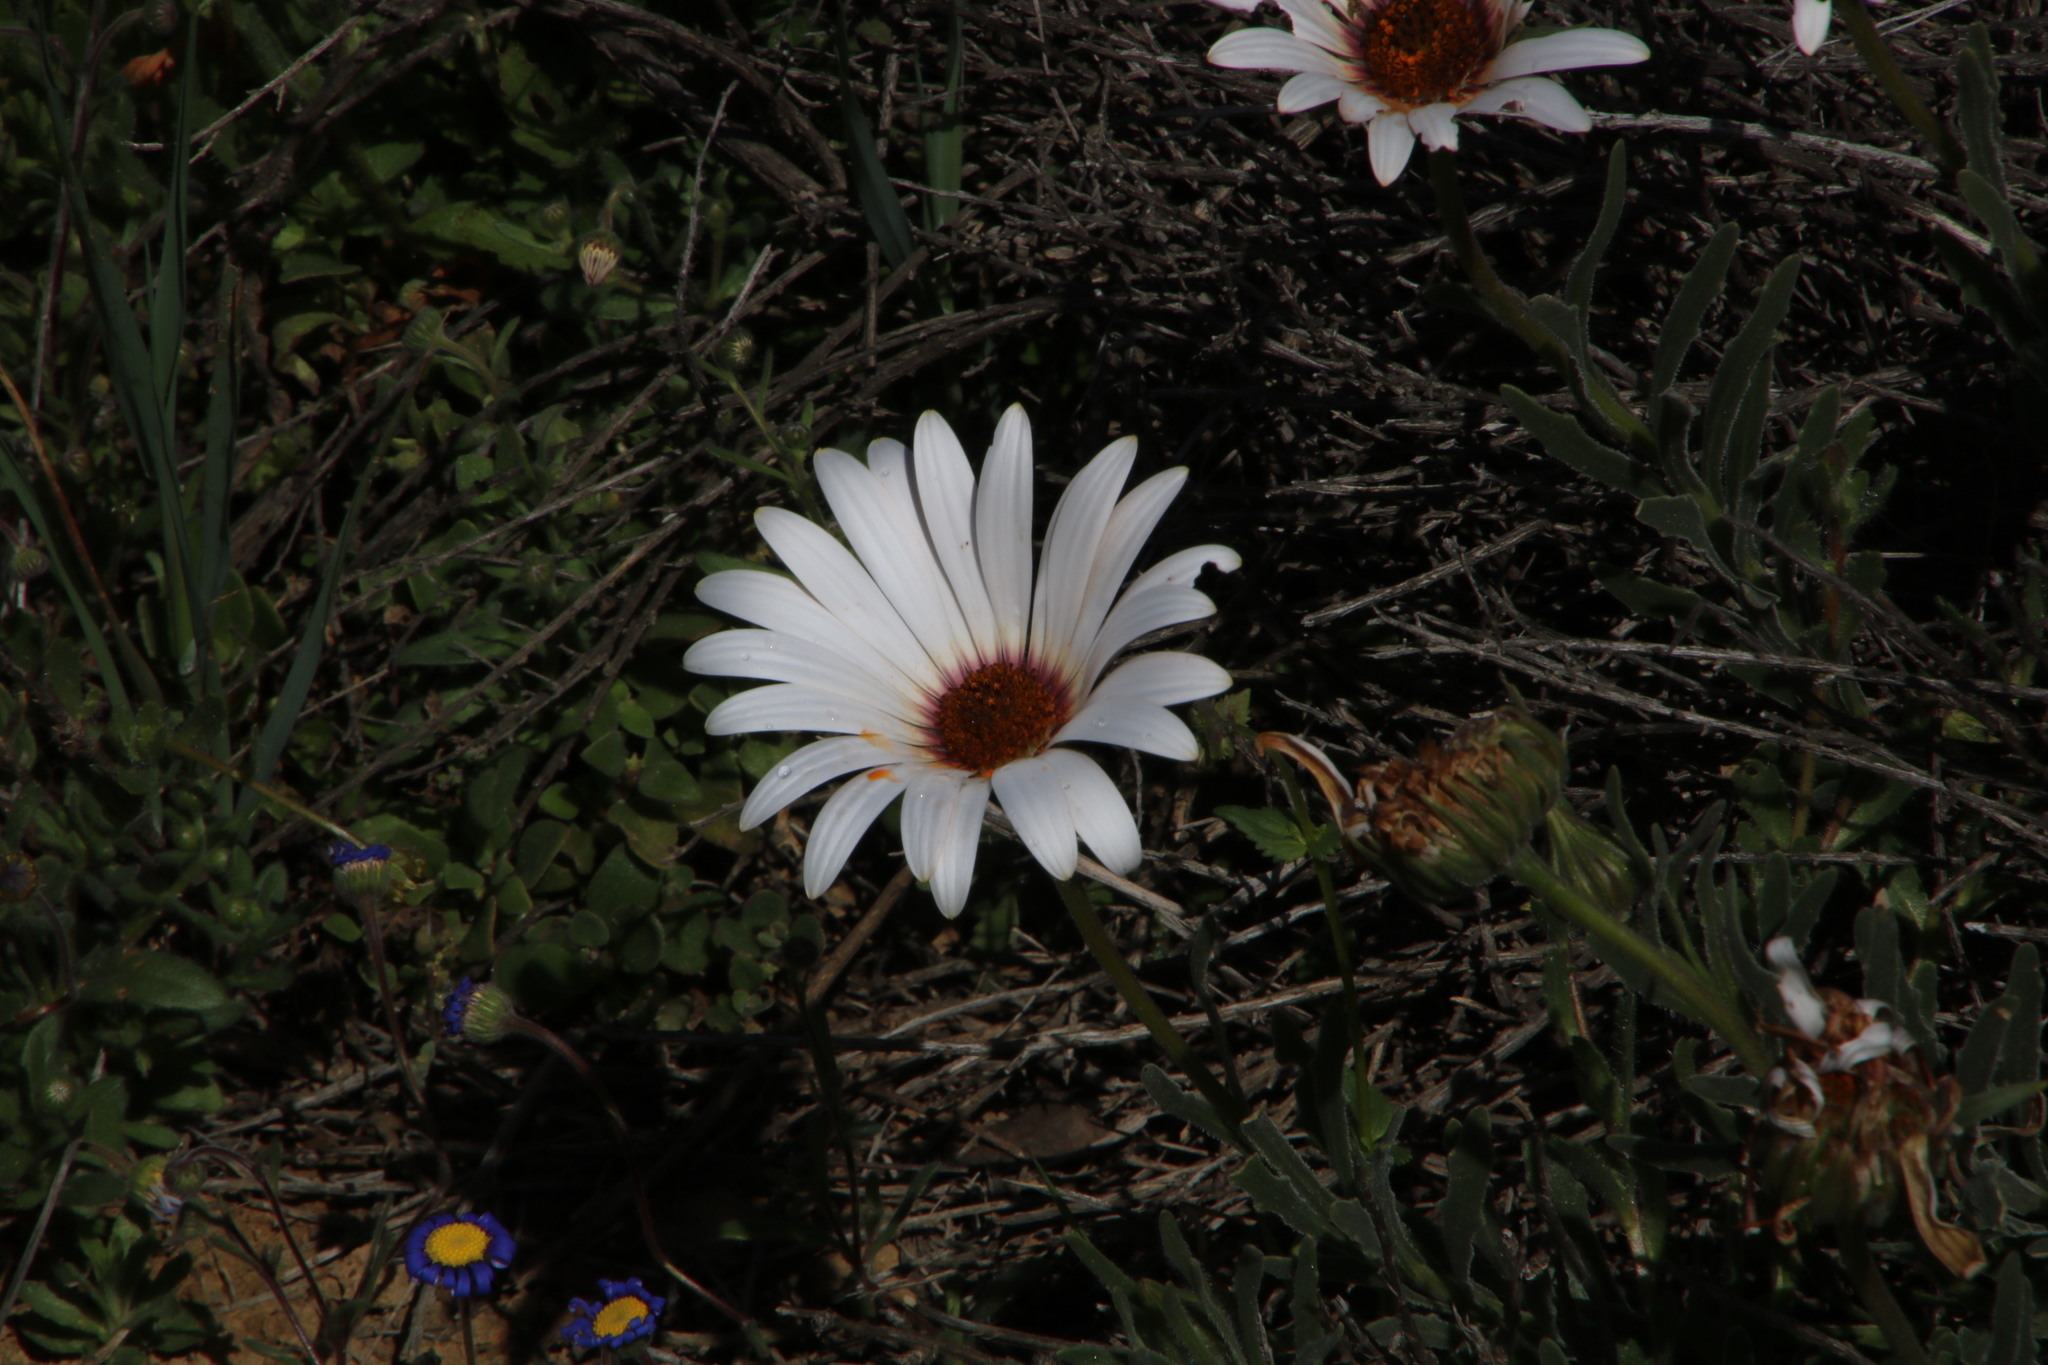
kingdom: Plantae
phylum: Tracheophyta
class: Magnoliopsida
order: Asterales
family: Asteraceae
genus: Dimorphotheca
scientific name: Dimorphotheca nudicaulis
